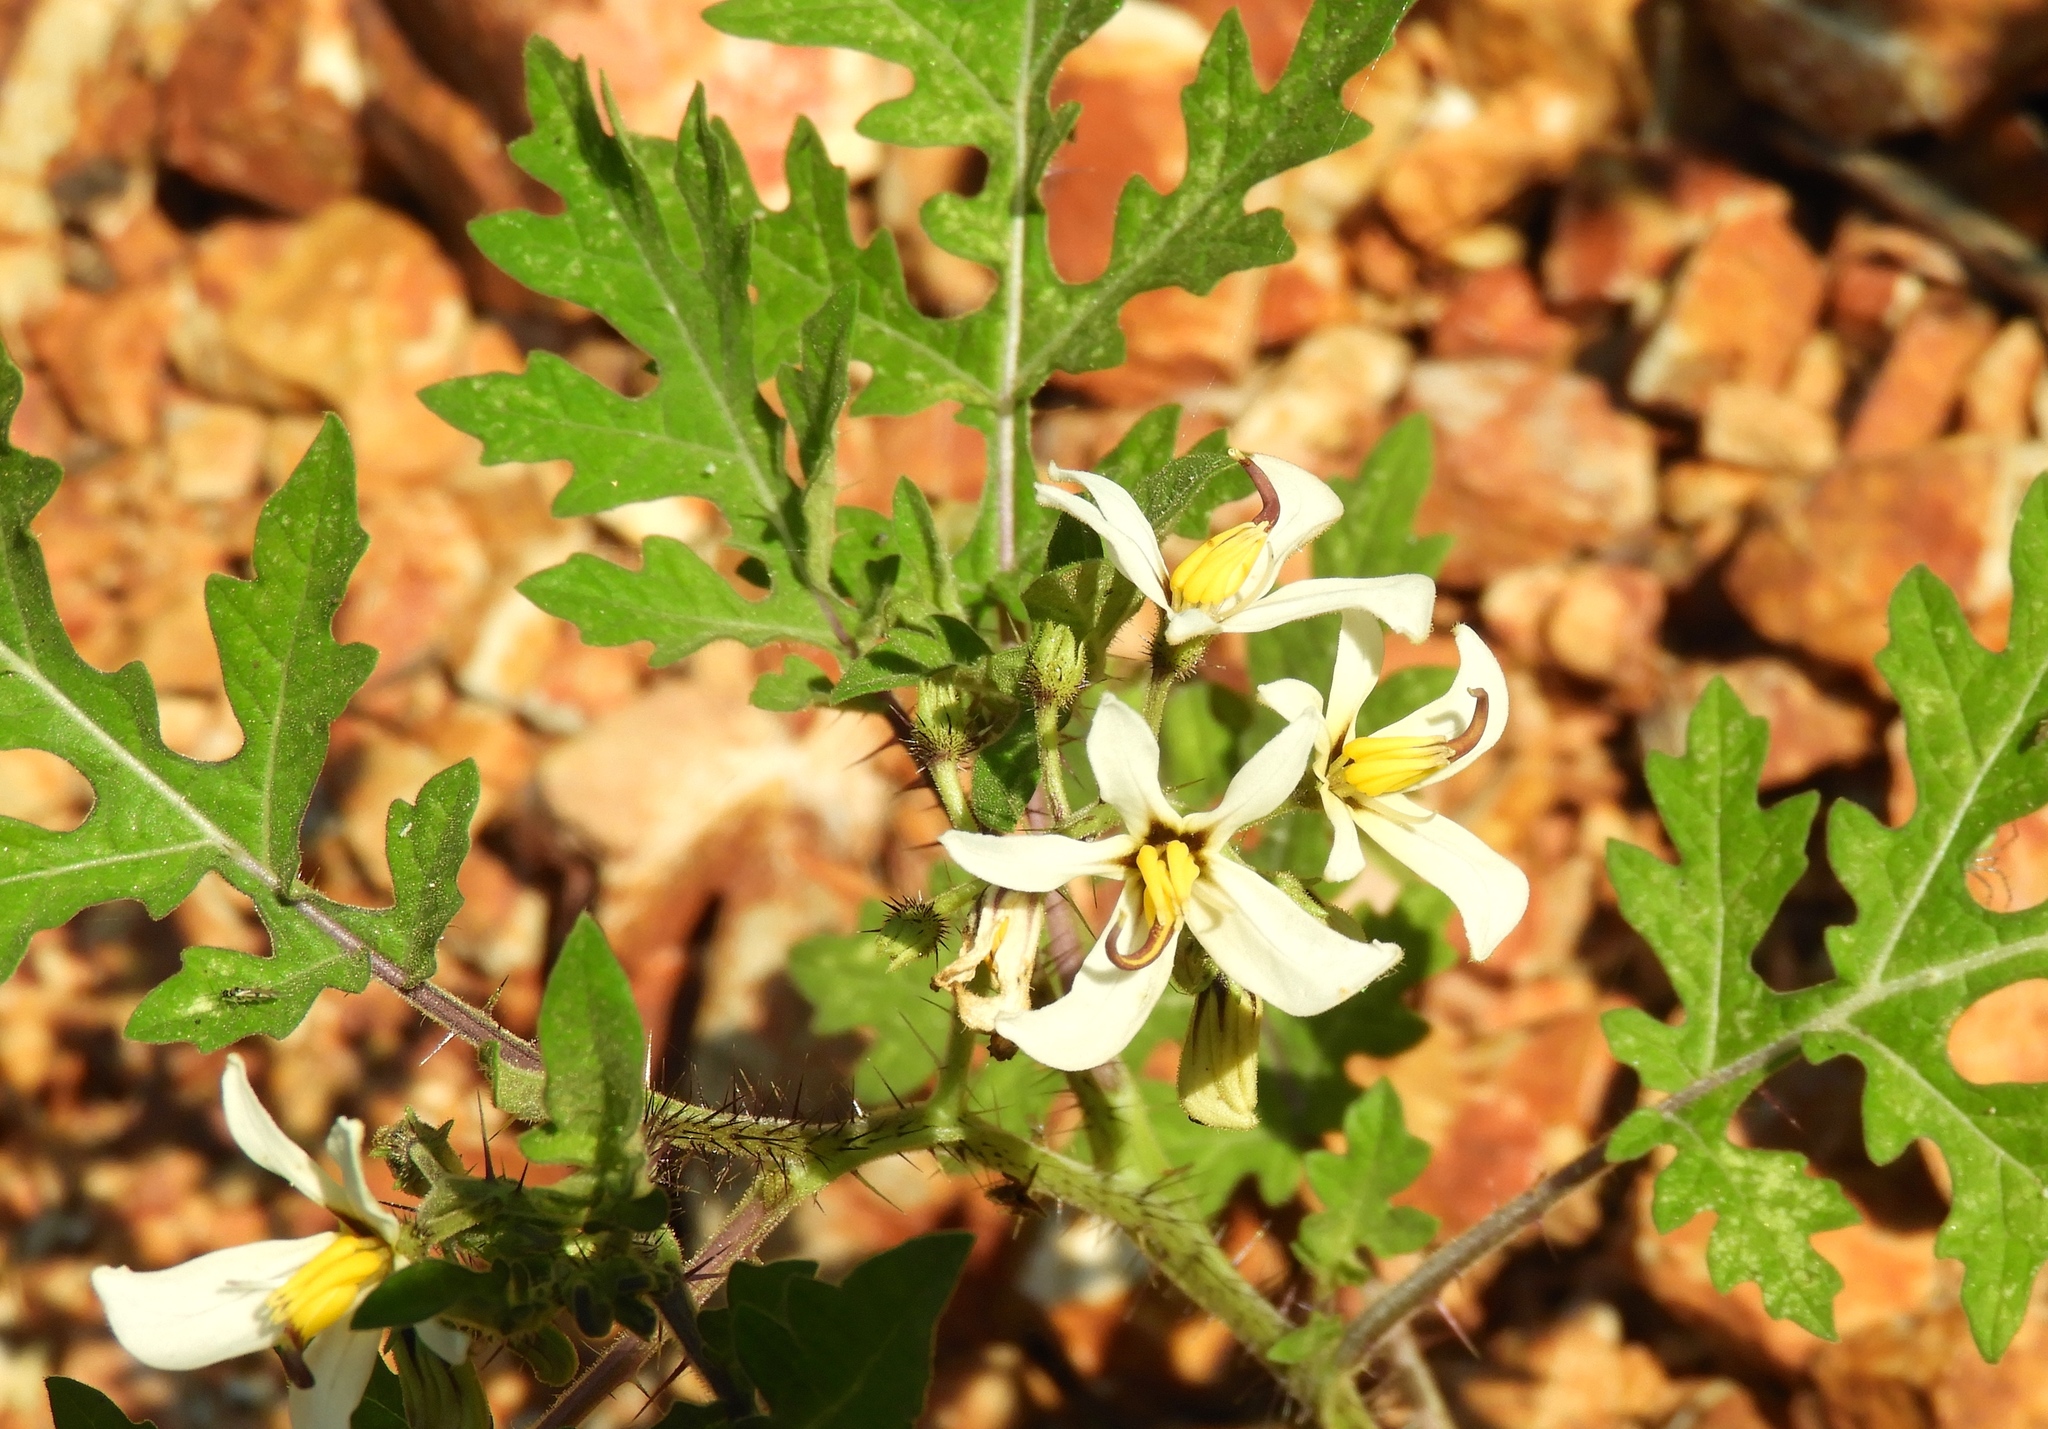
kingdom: Plantae
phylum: Tracheophyta
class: Magnoliopsida
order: Solanales
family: Solanaceae
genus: Solanum
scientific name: Solanum grayi
